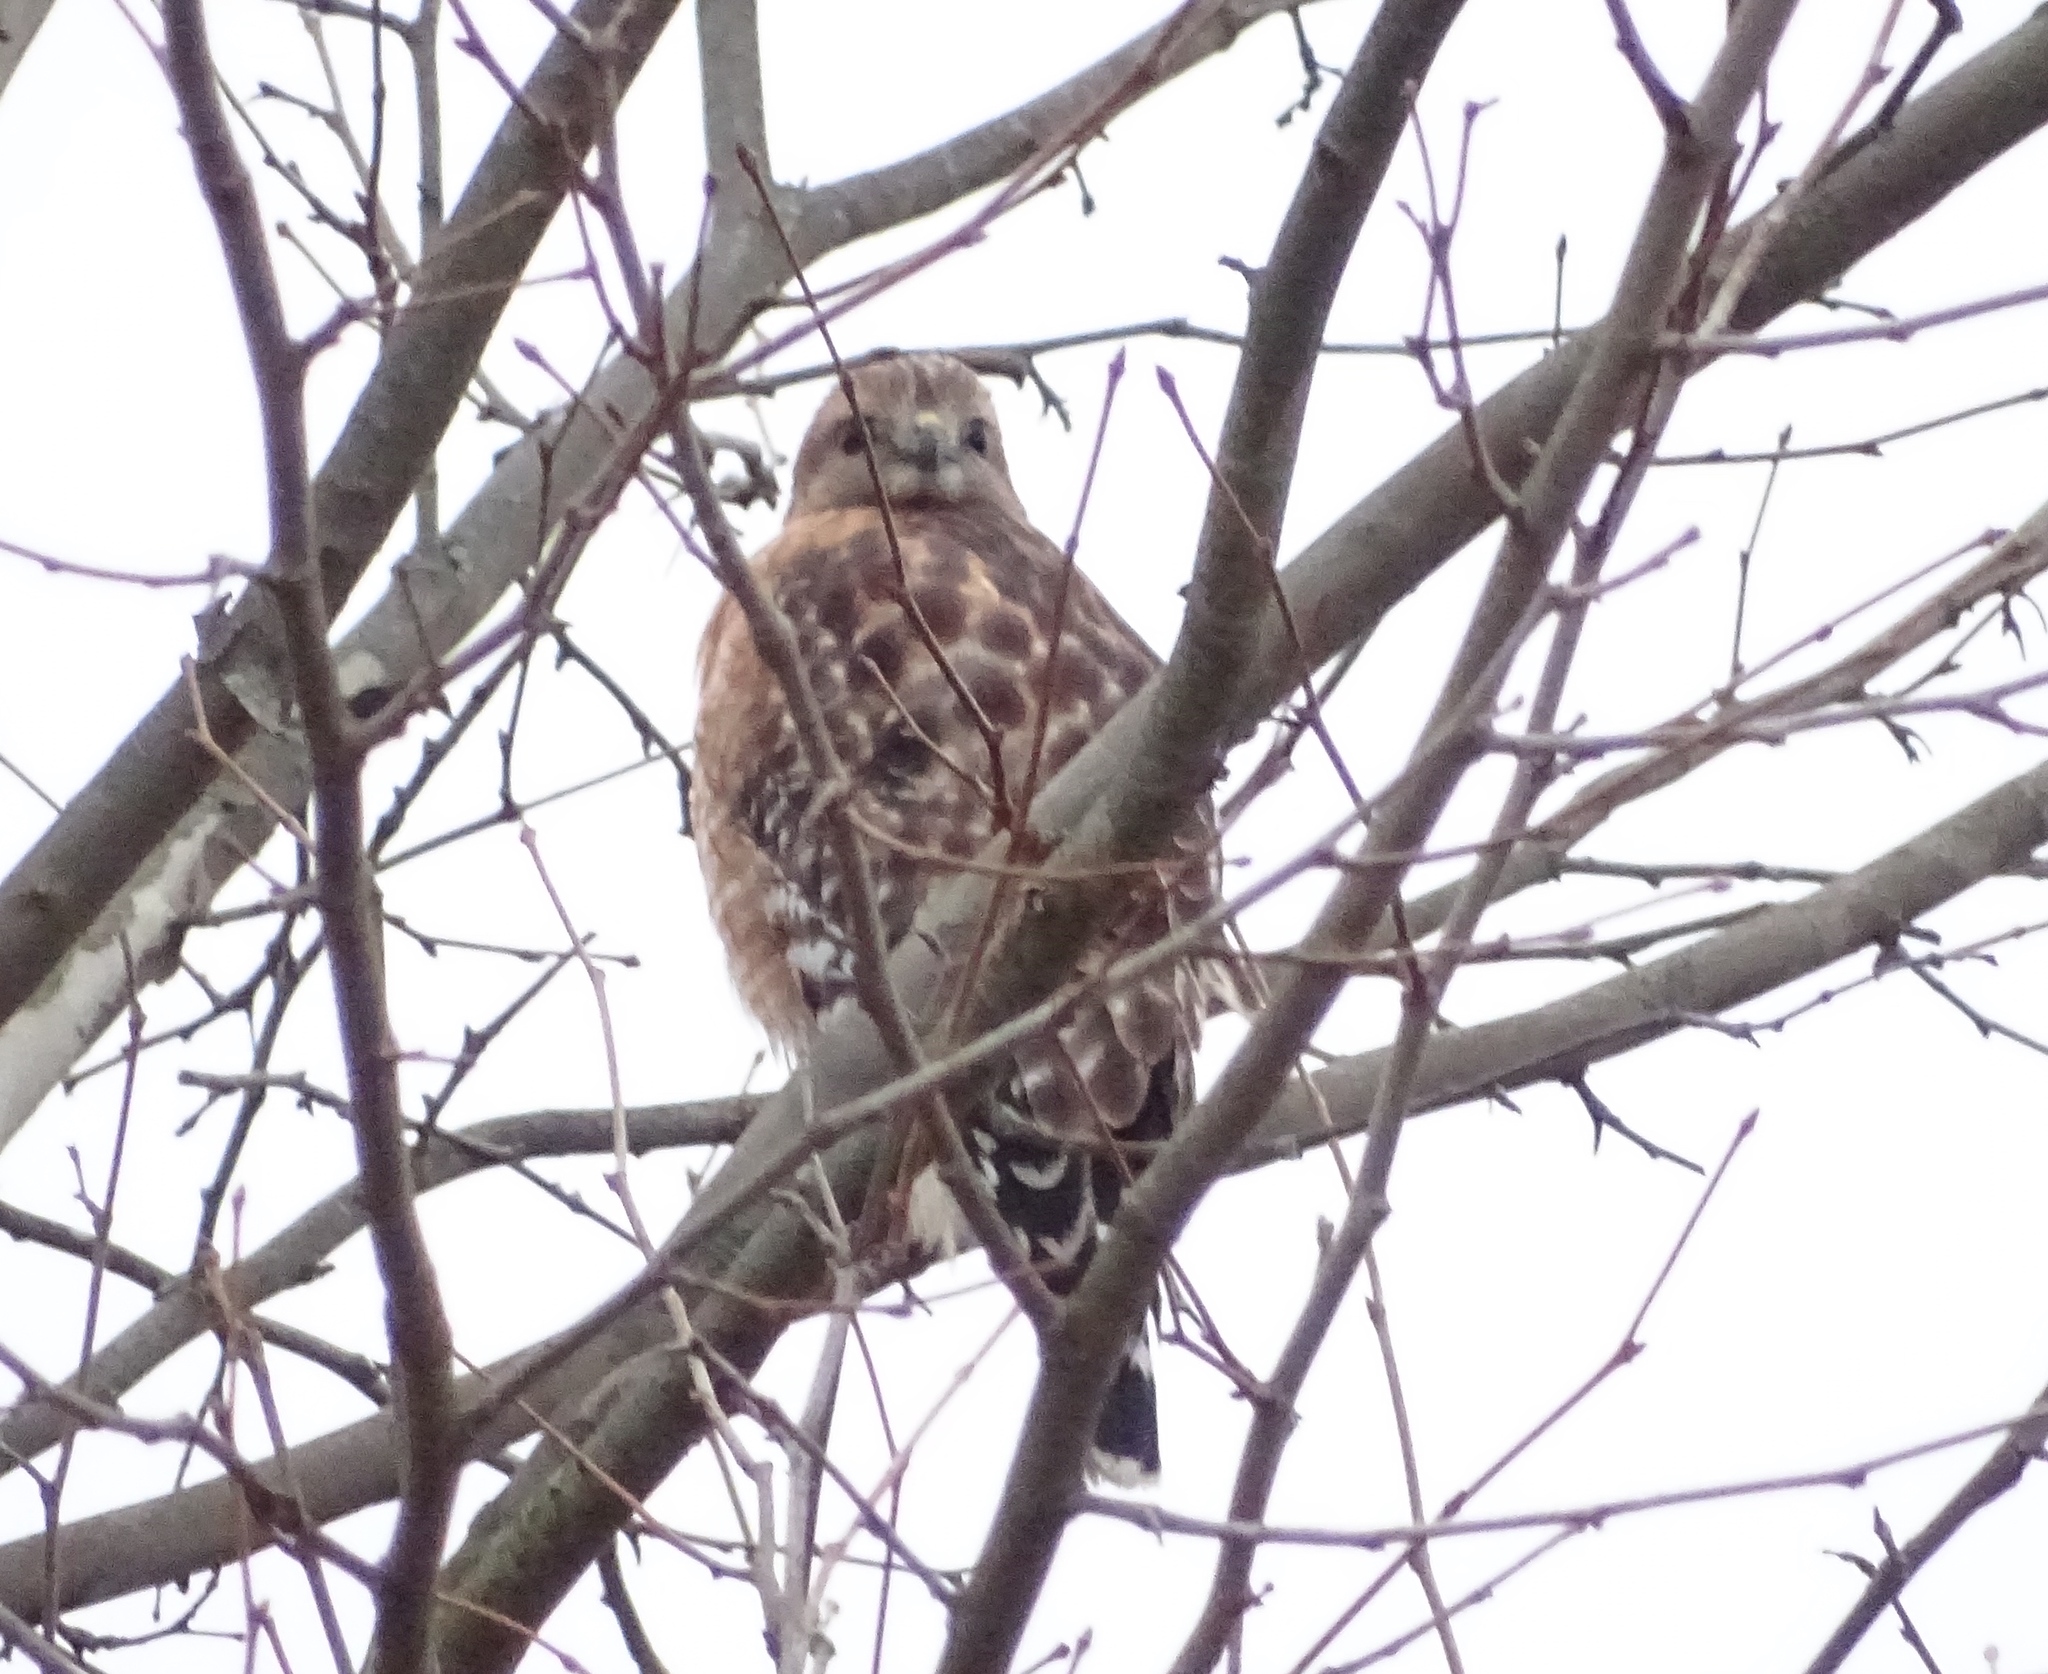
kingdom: Animalia
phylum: Chordata
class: Aves
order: Accipitriformes
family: Accipitridae
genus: Buteo
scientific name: Buteo lineatus
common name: Red-shouldered hawk
